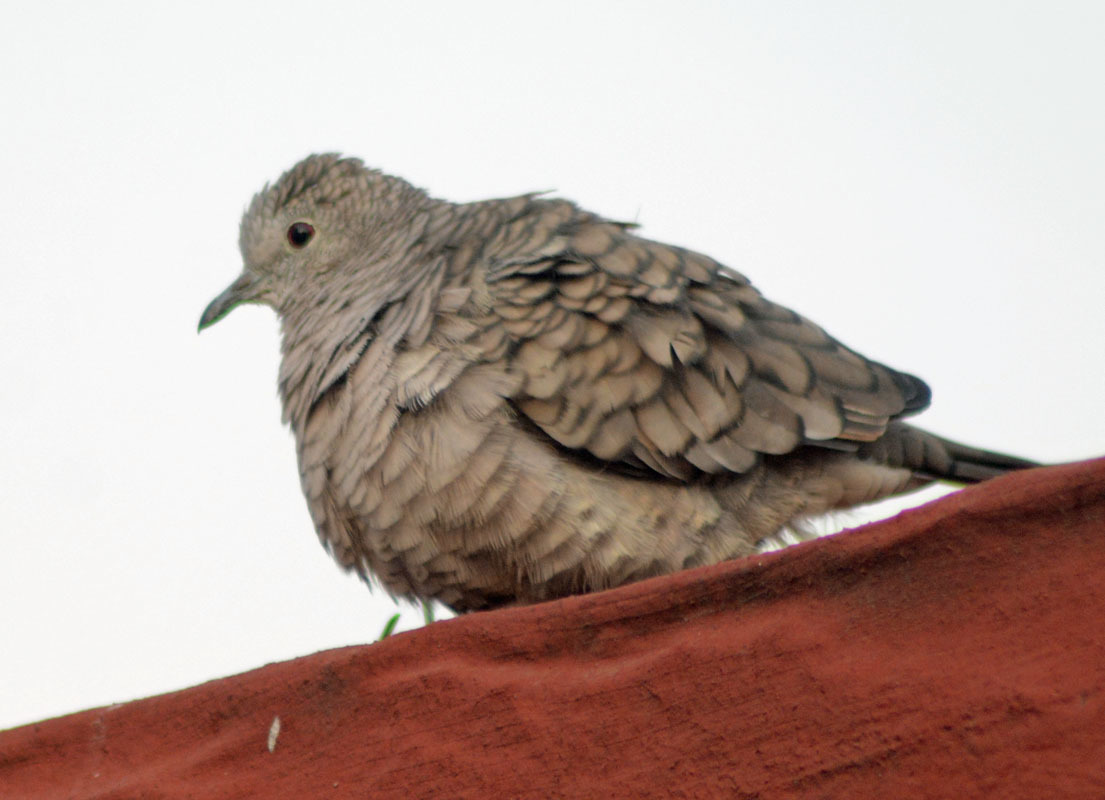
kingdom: Animalia
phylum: Chordata
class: Aves
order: Columbiformes
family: Columbidae
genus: Columbina
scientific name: Columbina inca
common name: Inca dove
